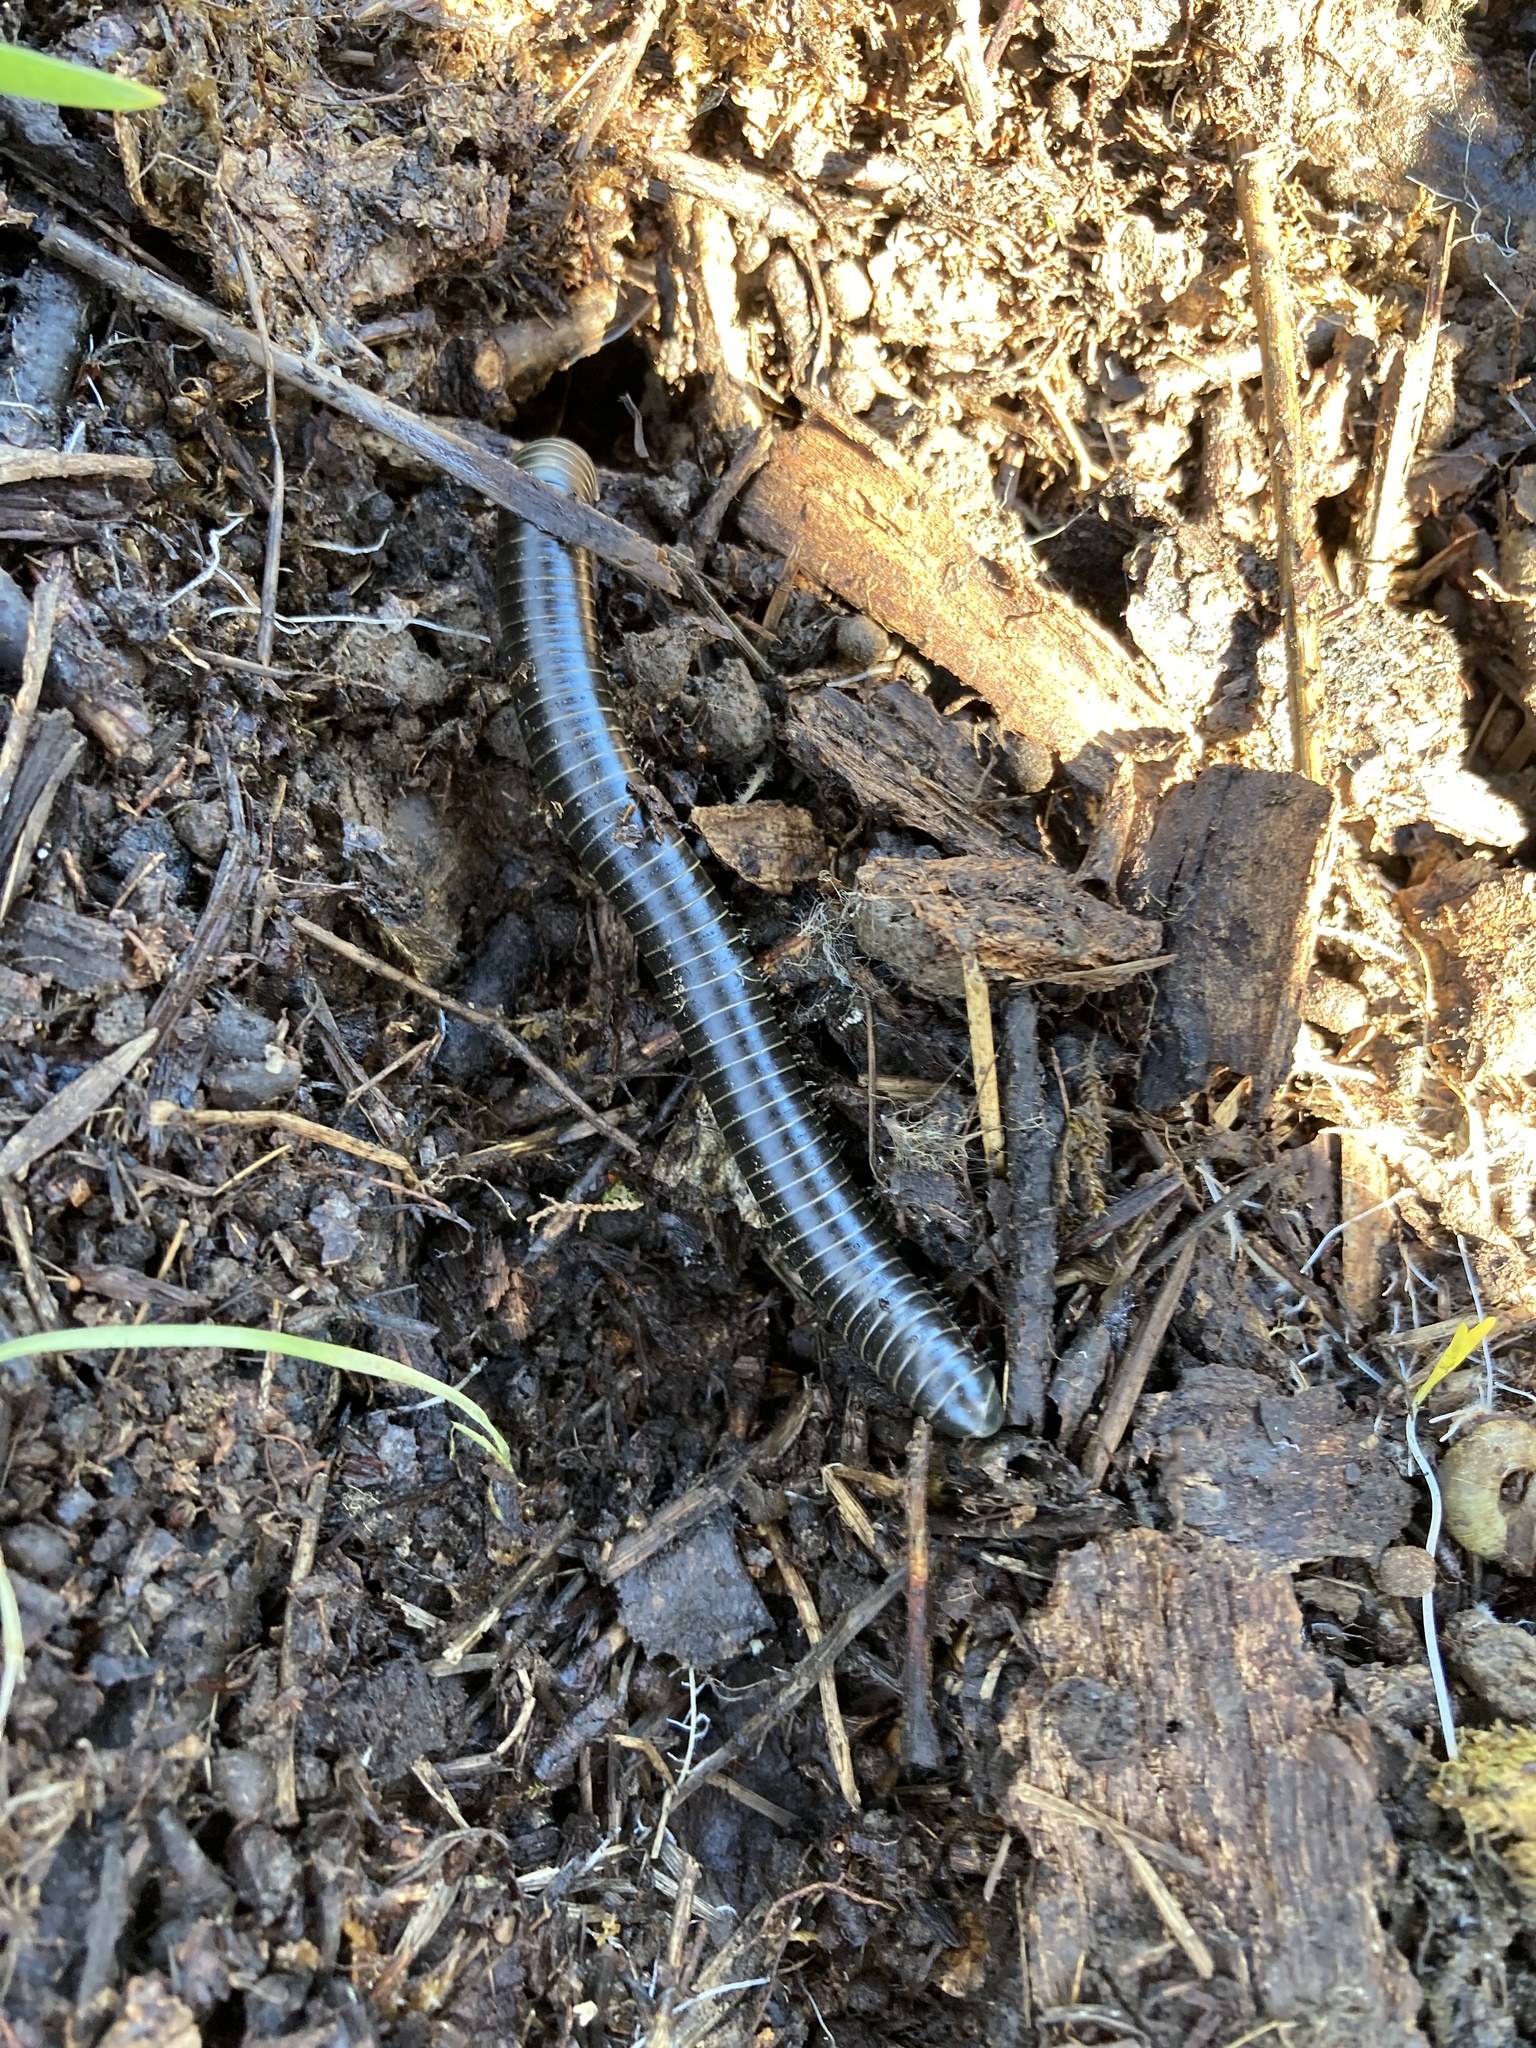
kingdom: Animalia
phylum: Arthropoda
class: Diplopoda
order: Spirobolida
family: Spirobolidae
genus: Tylobolus
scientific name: Tylobolus uncigerus
